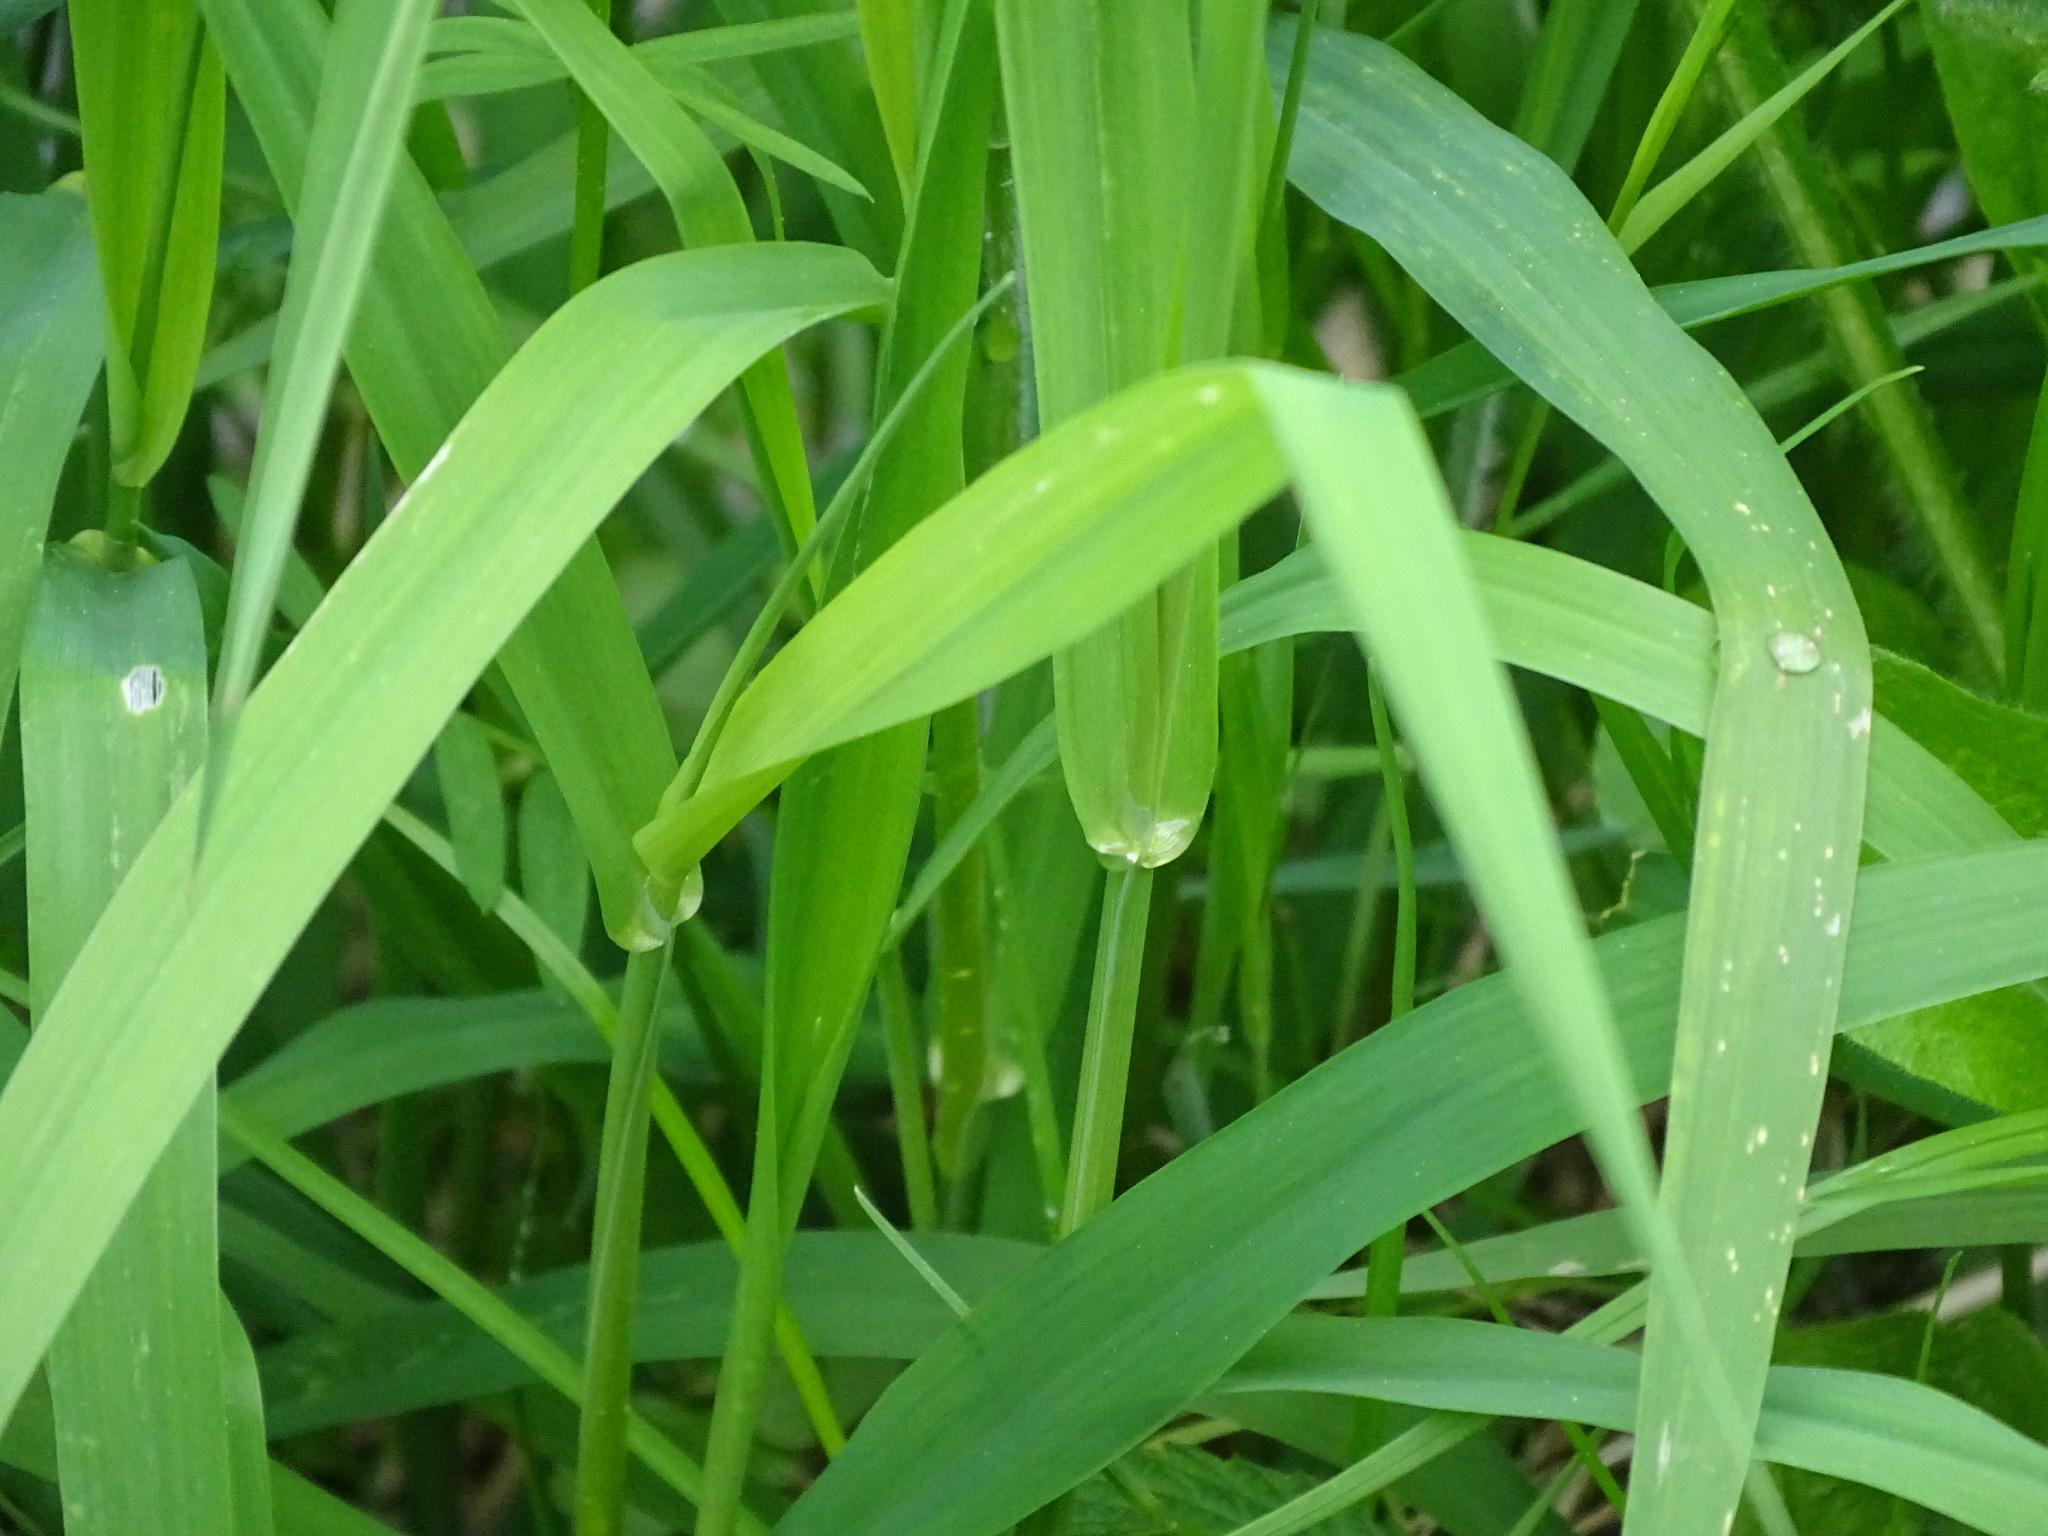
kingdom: Plantae
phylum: Tracheophyta
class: Liliopsida
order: Poales
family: Poaceae
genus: Phalaris
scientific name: Phalaris arundinacea
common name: Reed canary-grass
